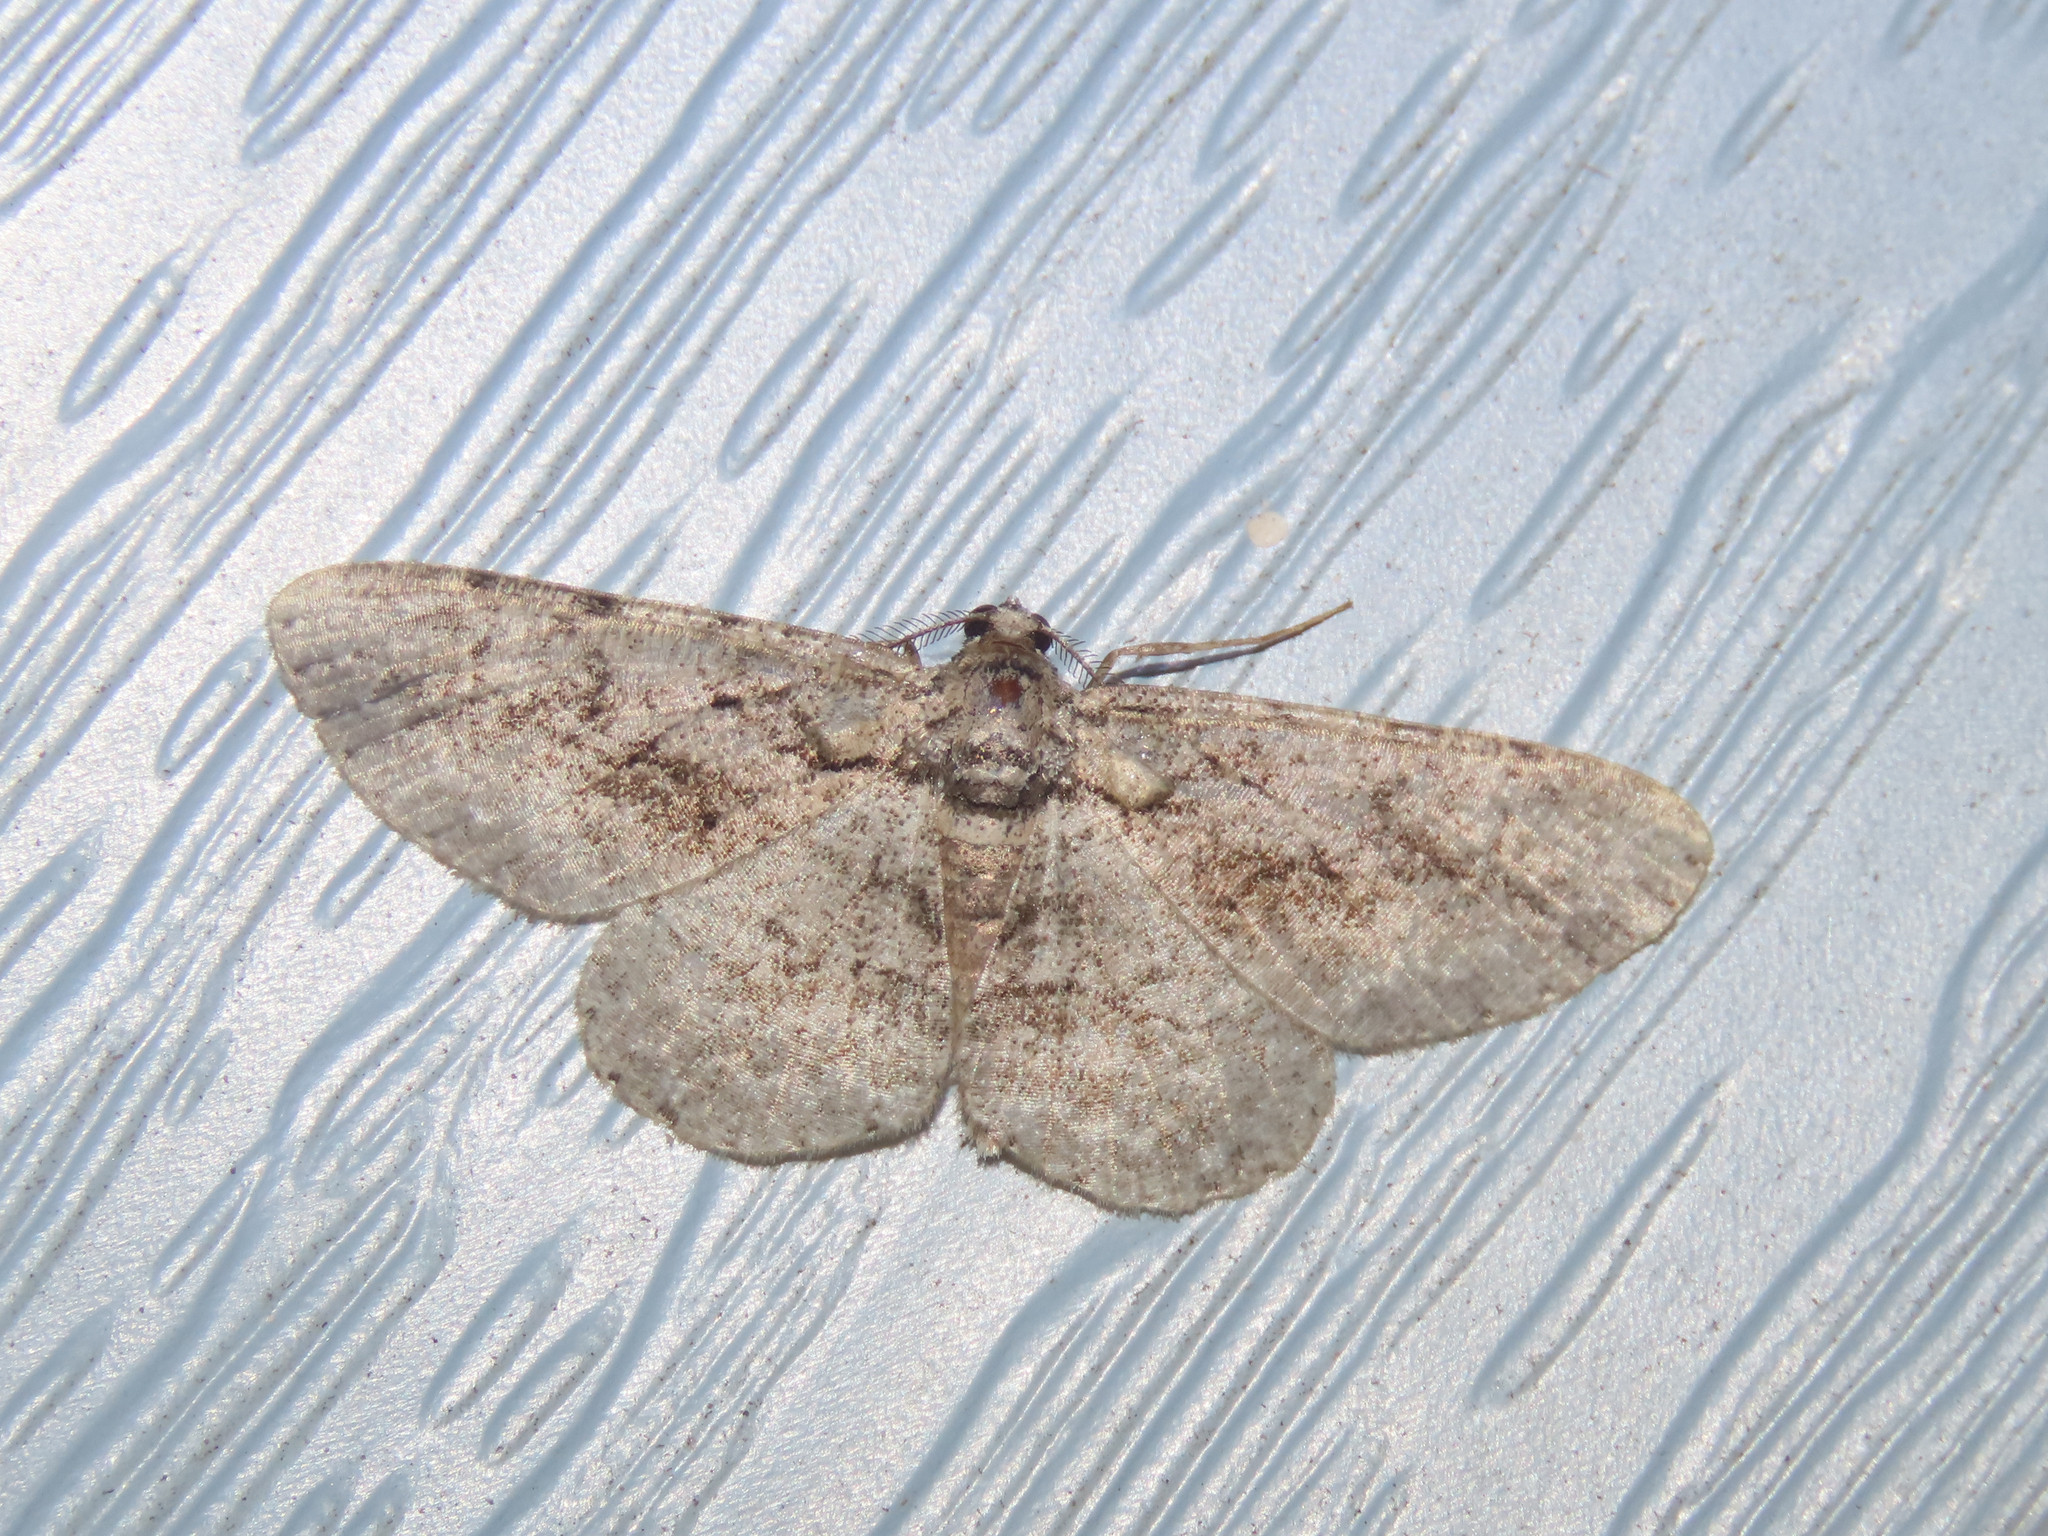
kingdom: Animalia
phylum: Arthropoda
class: Insecta
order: Lepidoptera
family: Geometridae
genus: Anavitrinella
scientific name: Anavitrinella pampinaria
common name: Common gray
